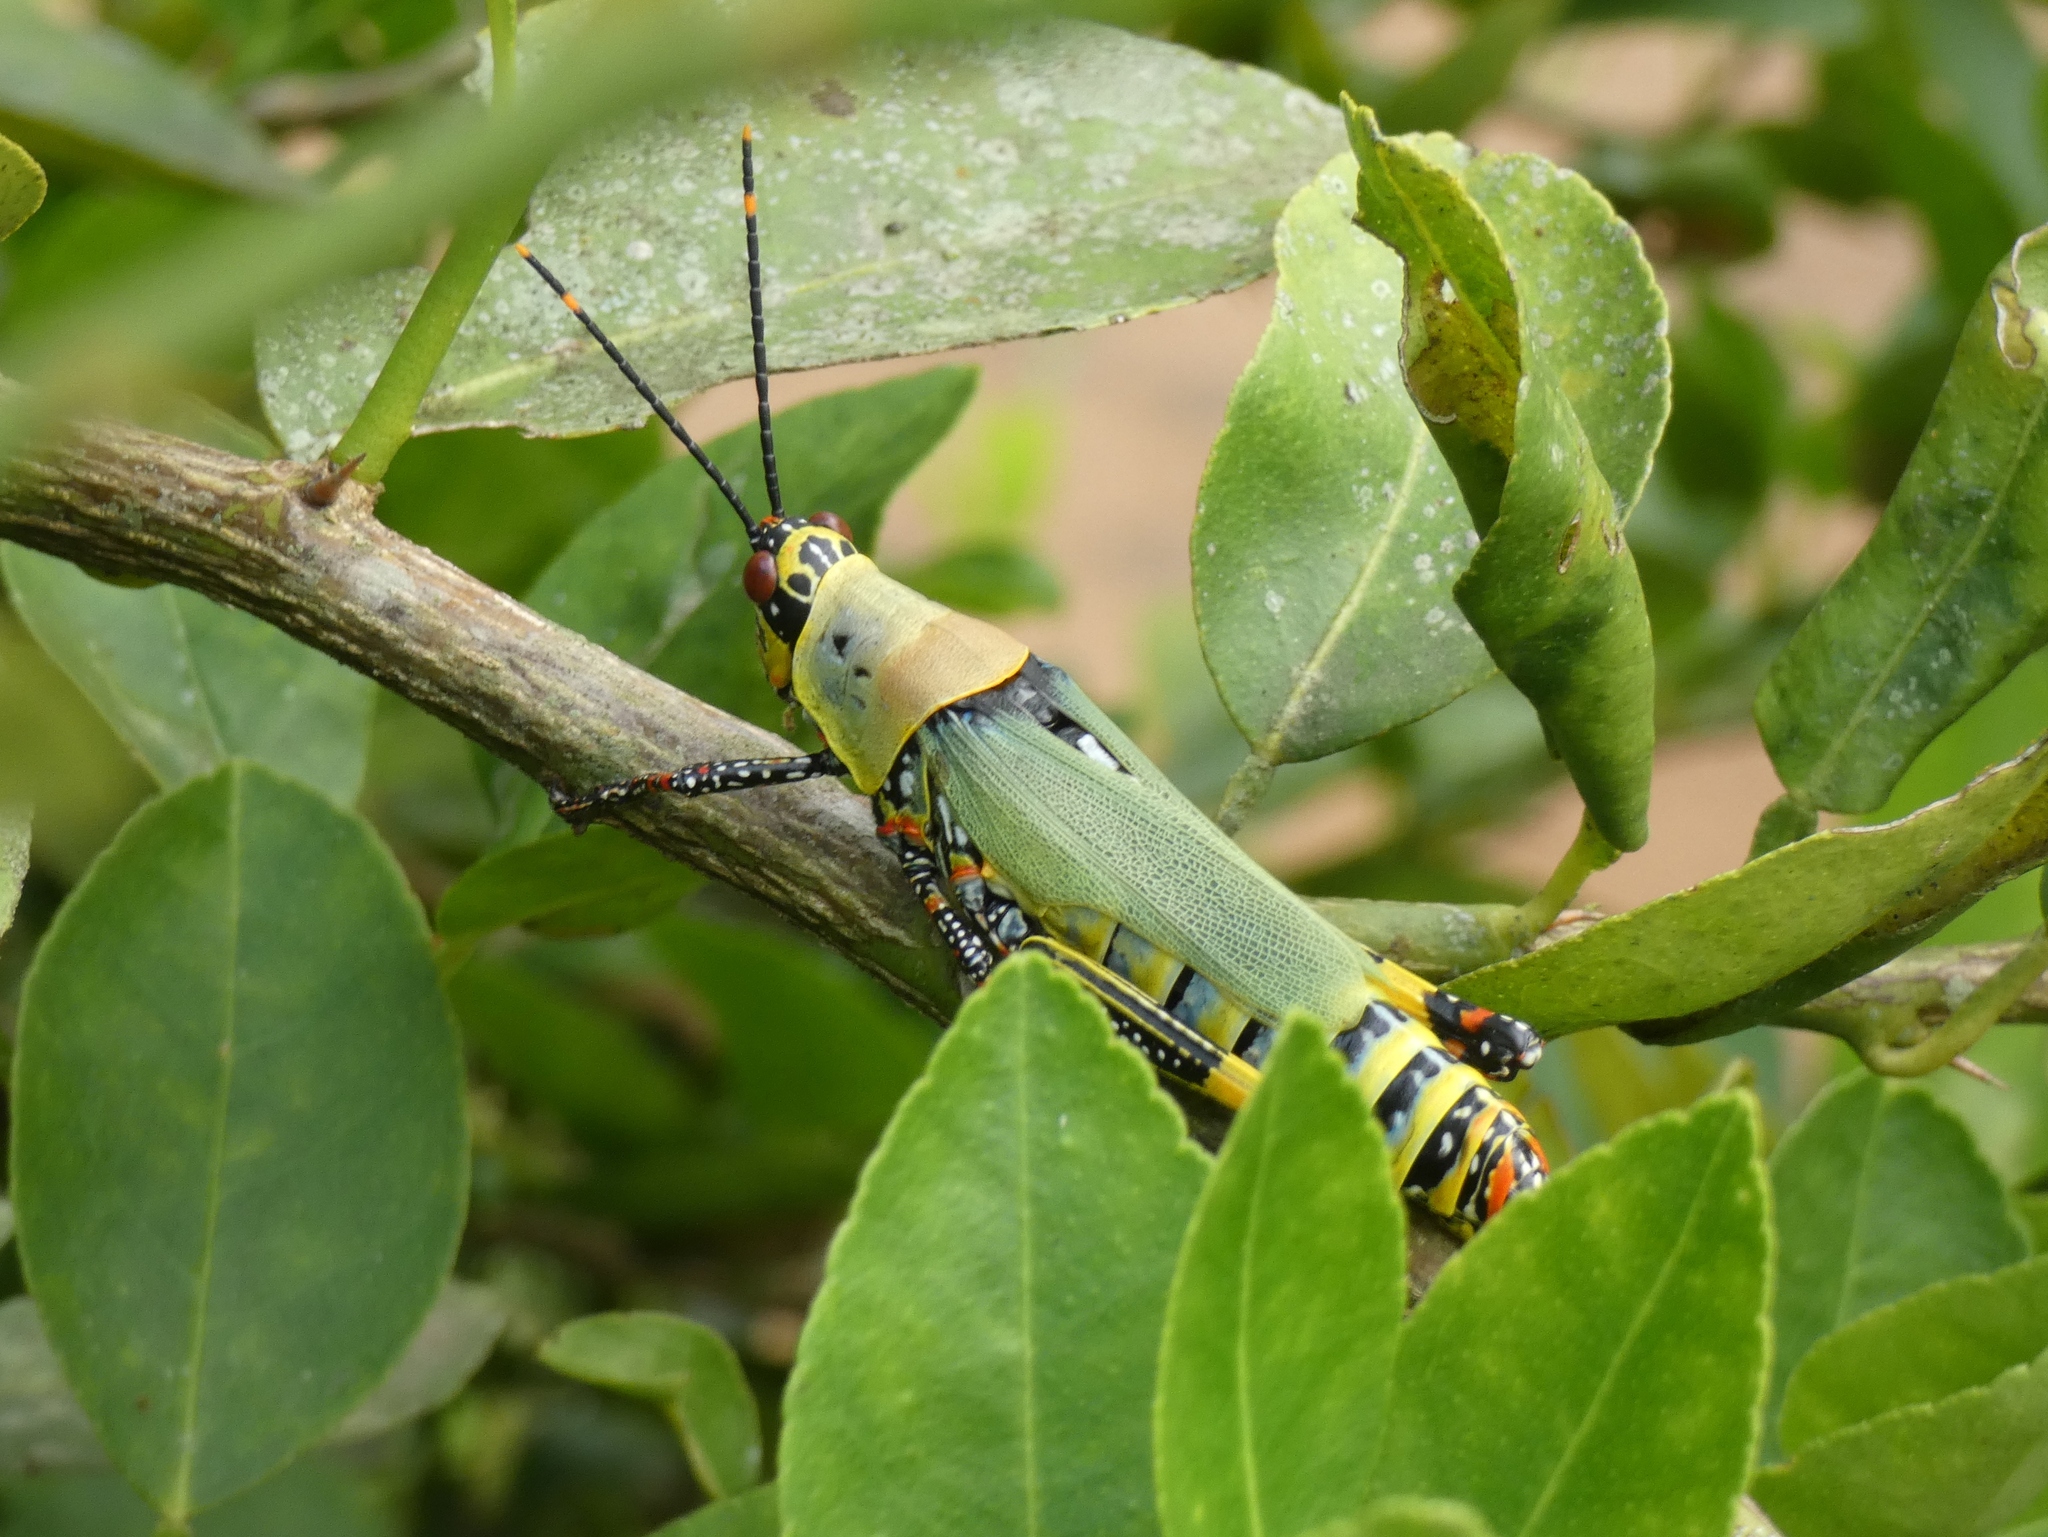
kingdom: Animalia
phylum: Arthropoda
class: Insecta
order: Orthoptera
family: Pyrgomorphidae
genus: Zonocerus
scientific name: Zonocerus variegatus
